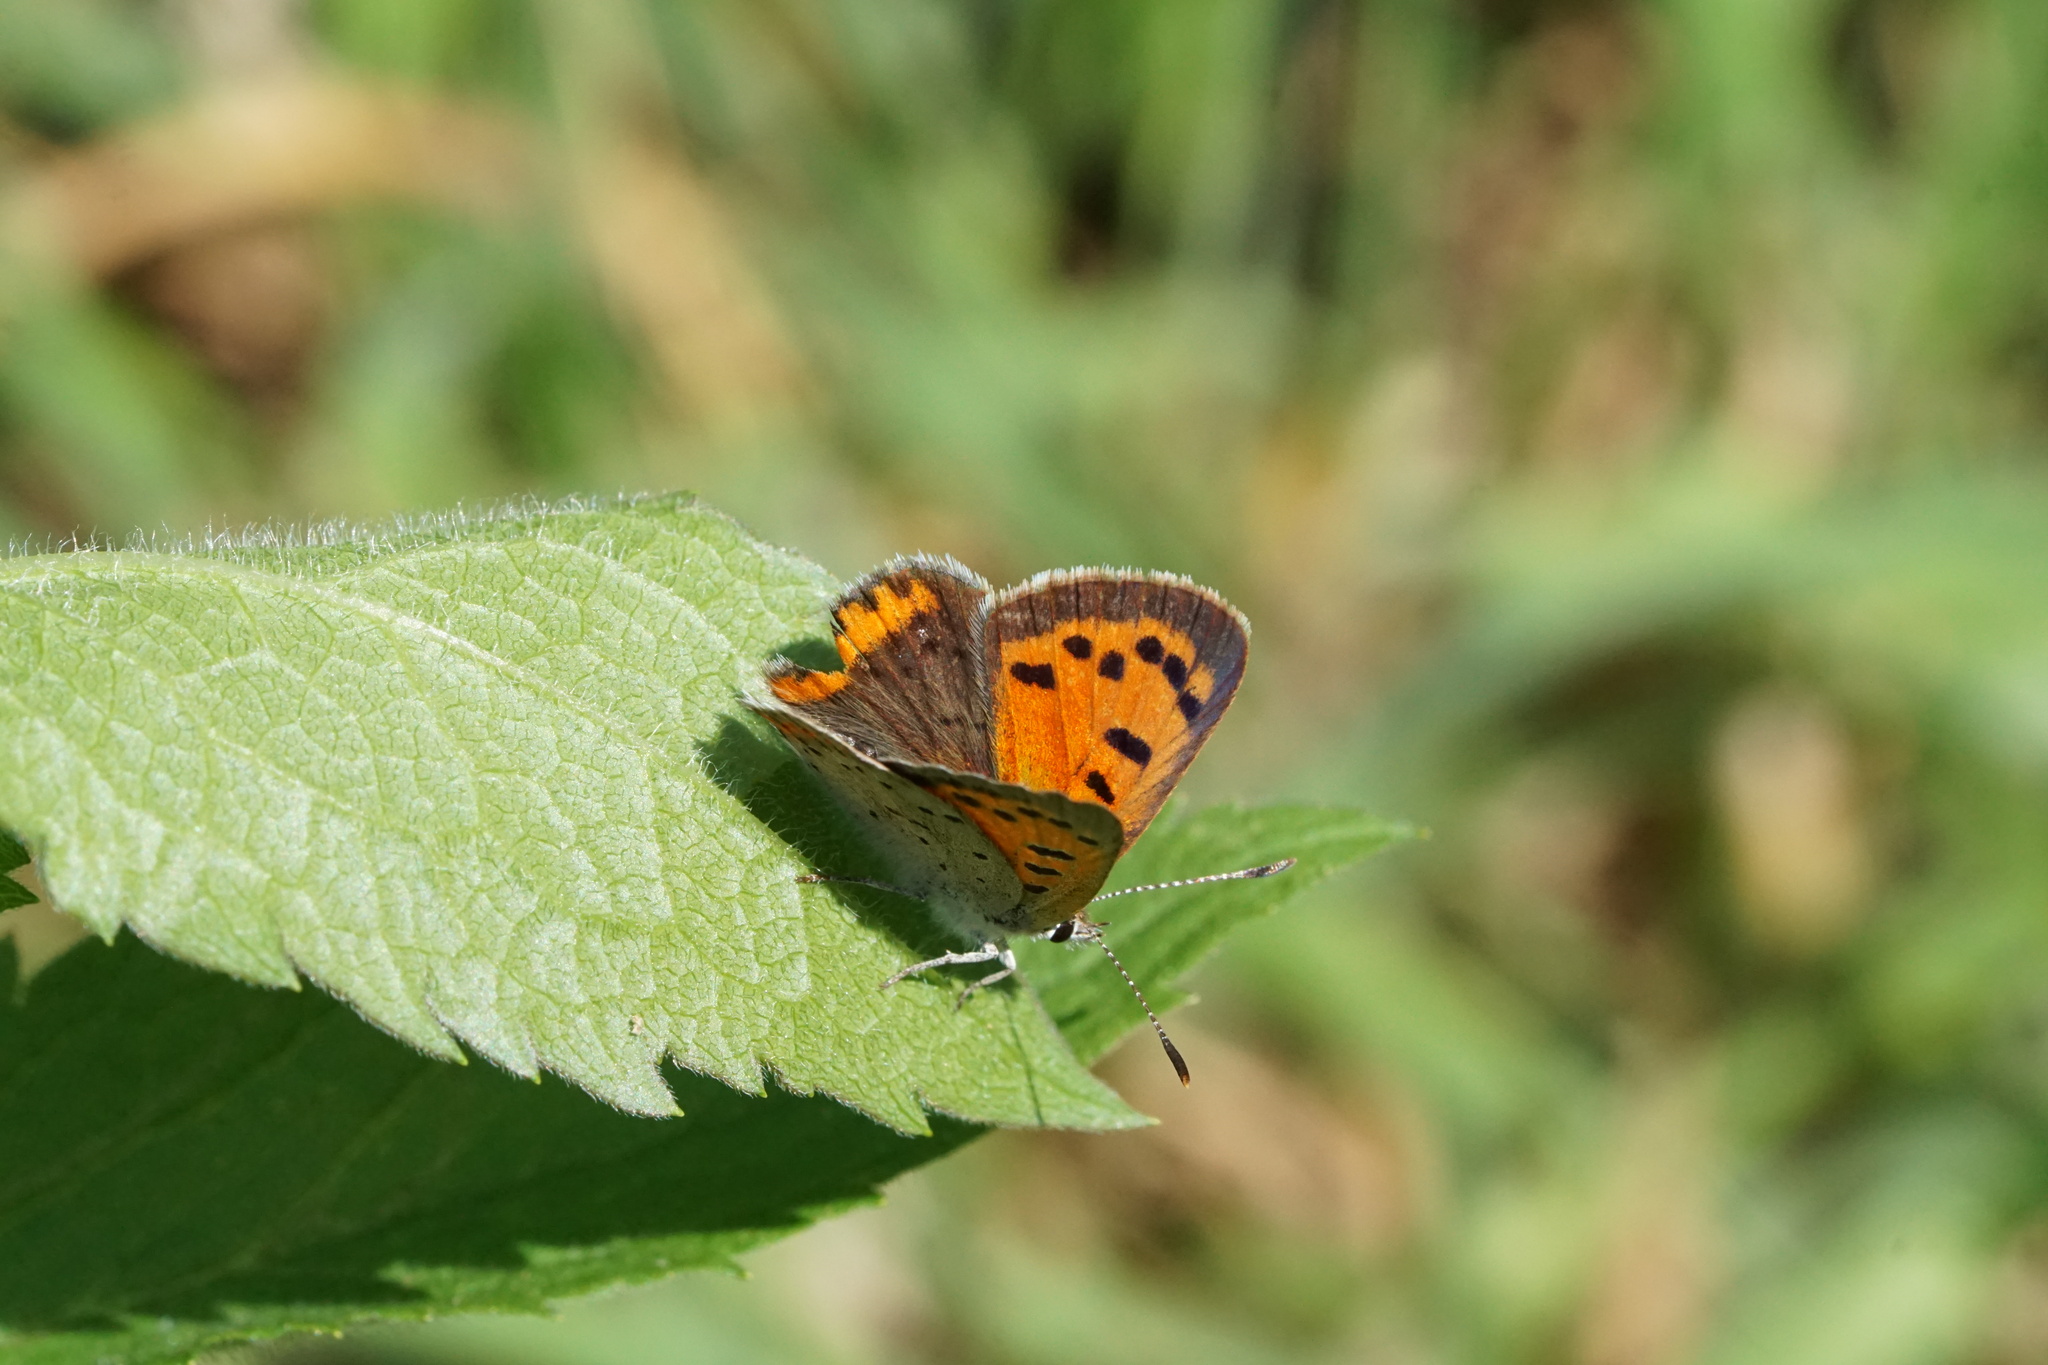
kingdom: Animalia
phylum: Arthropoda
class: Insecta
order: Lepidoptera
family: Lycaenidae
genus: Lycaena
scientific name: Lycaena hypophlaeas
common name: American copper
